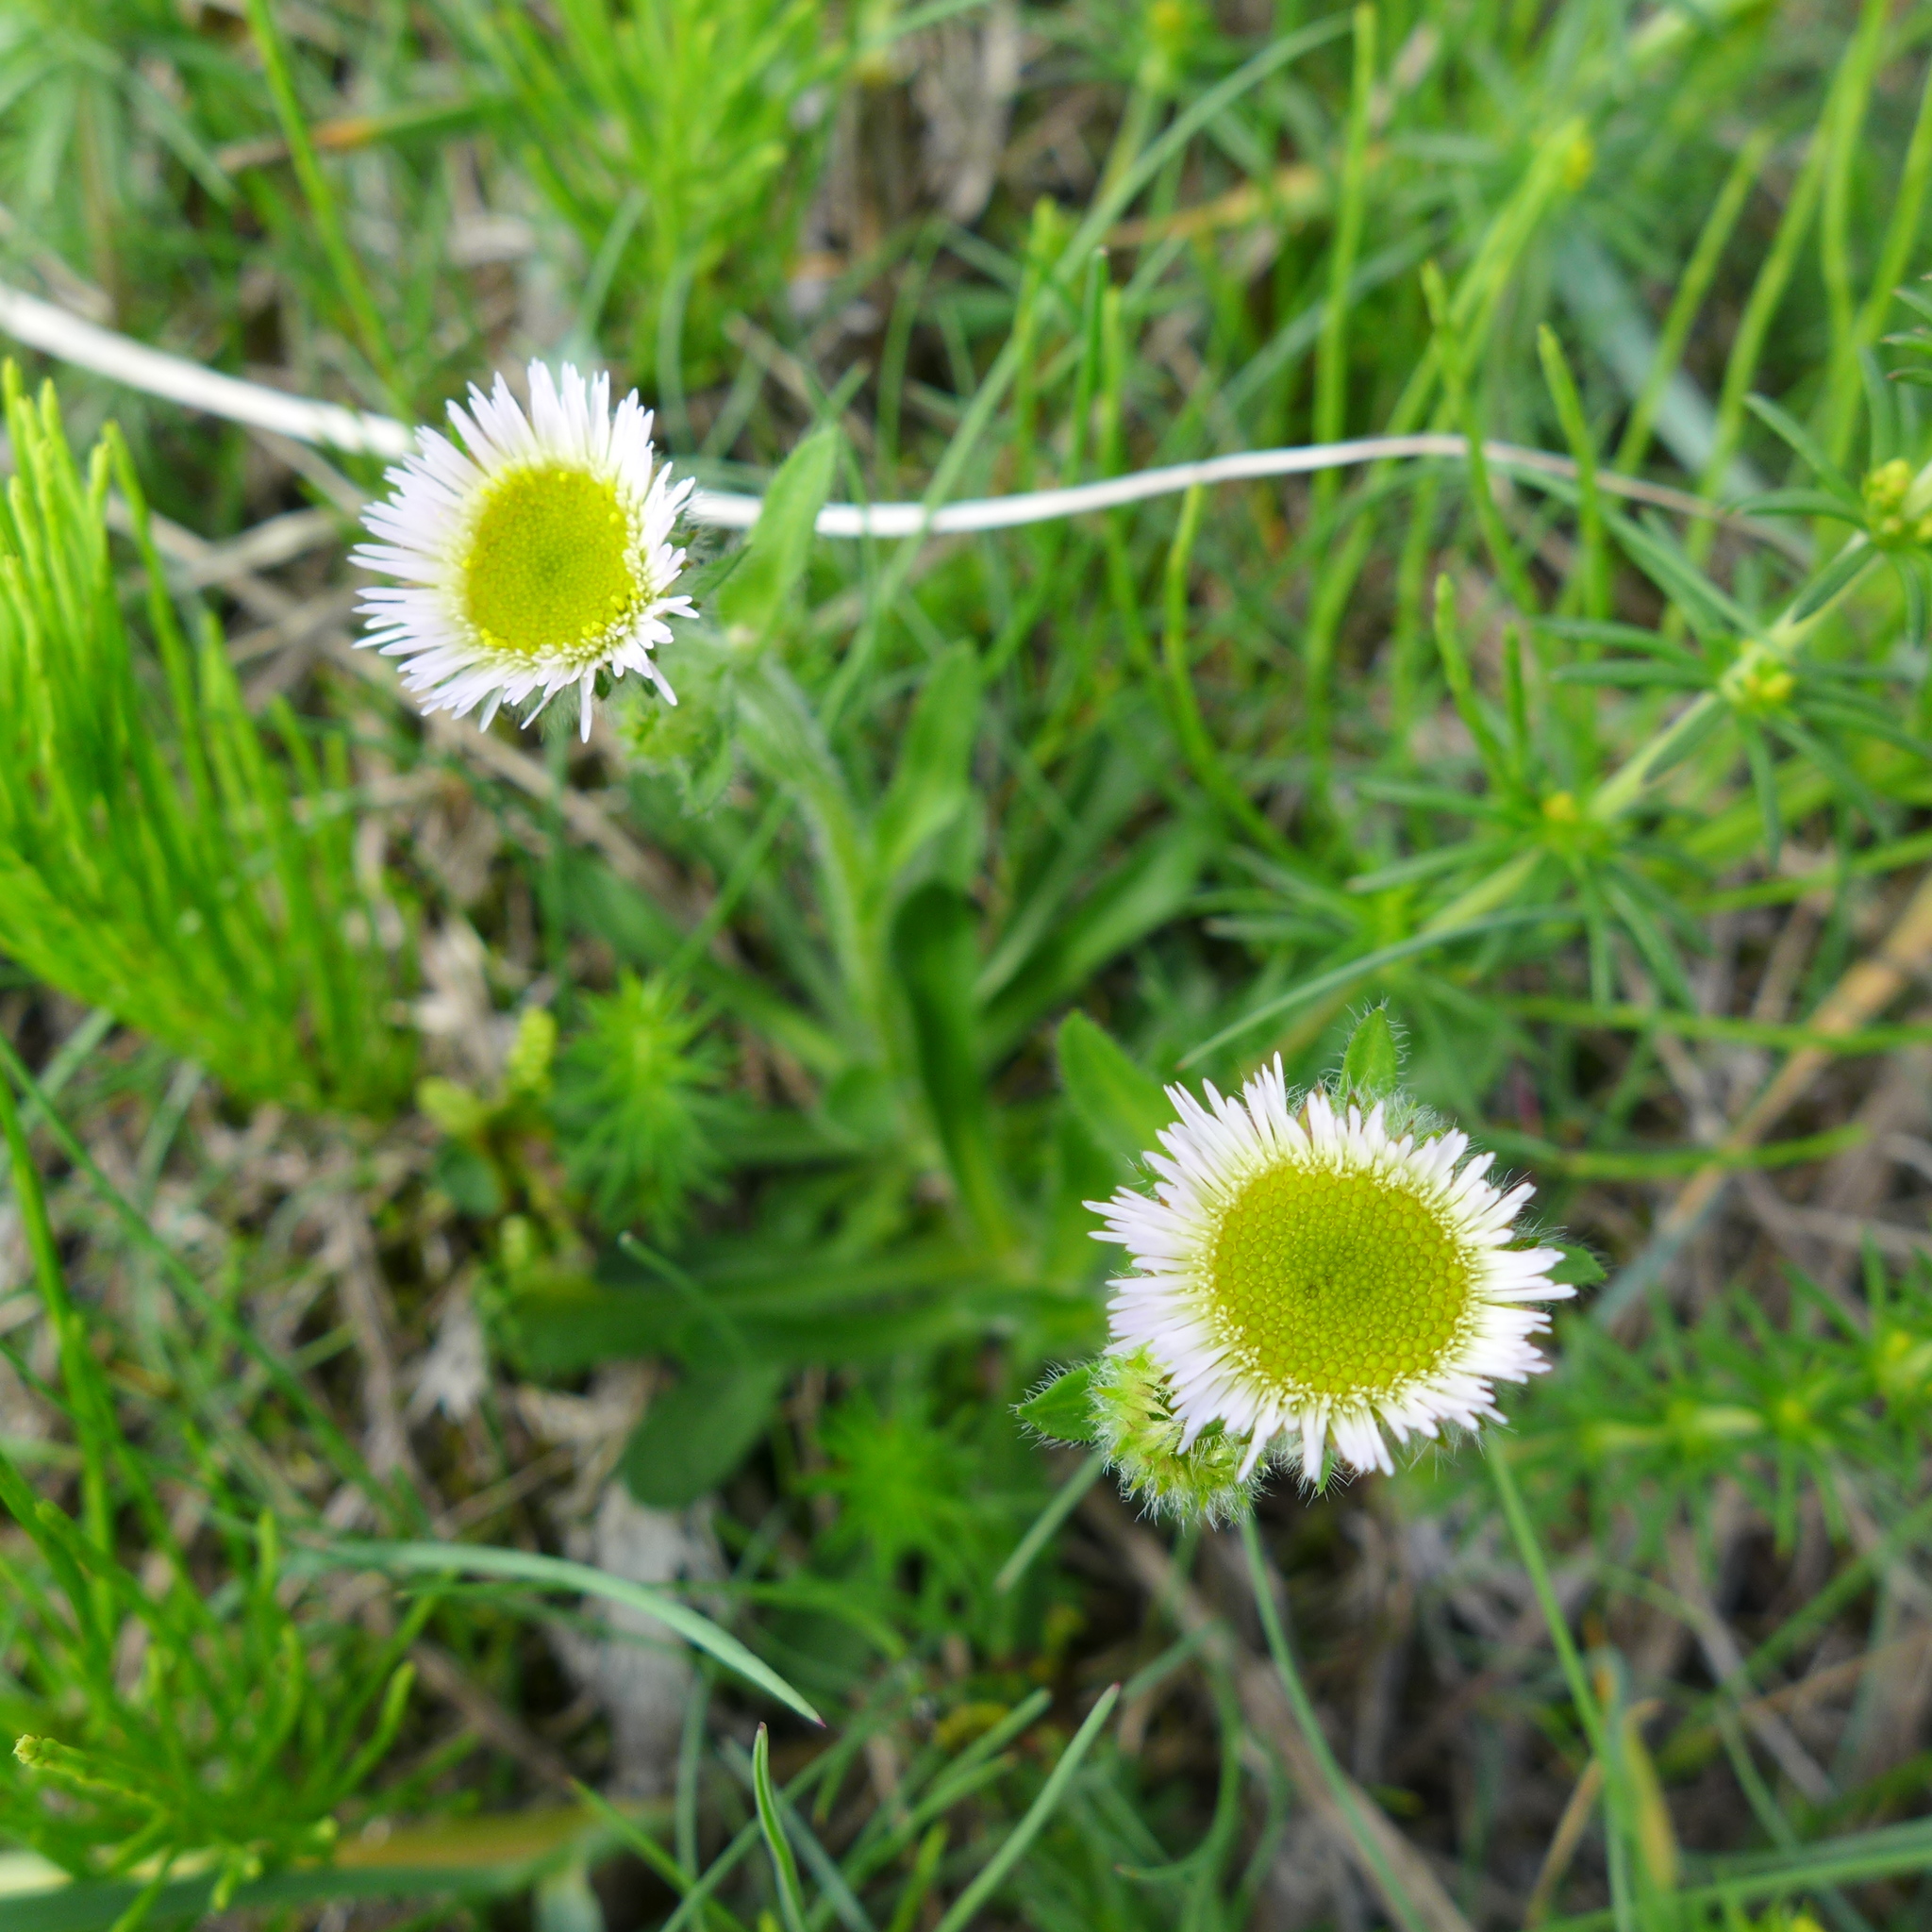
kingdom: Plantae
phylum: Tracheophyta
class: Magnoliopsida
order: Asterales
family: Asteraceae
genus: Erigeron
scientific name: Erigeron uniflorus
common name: Northern daisy
